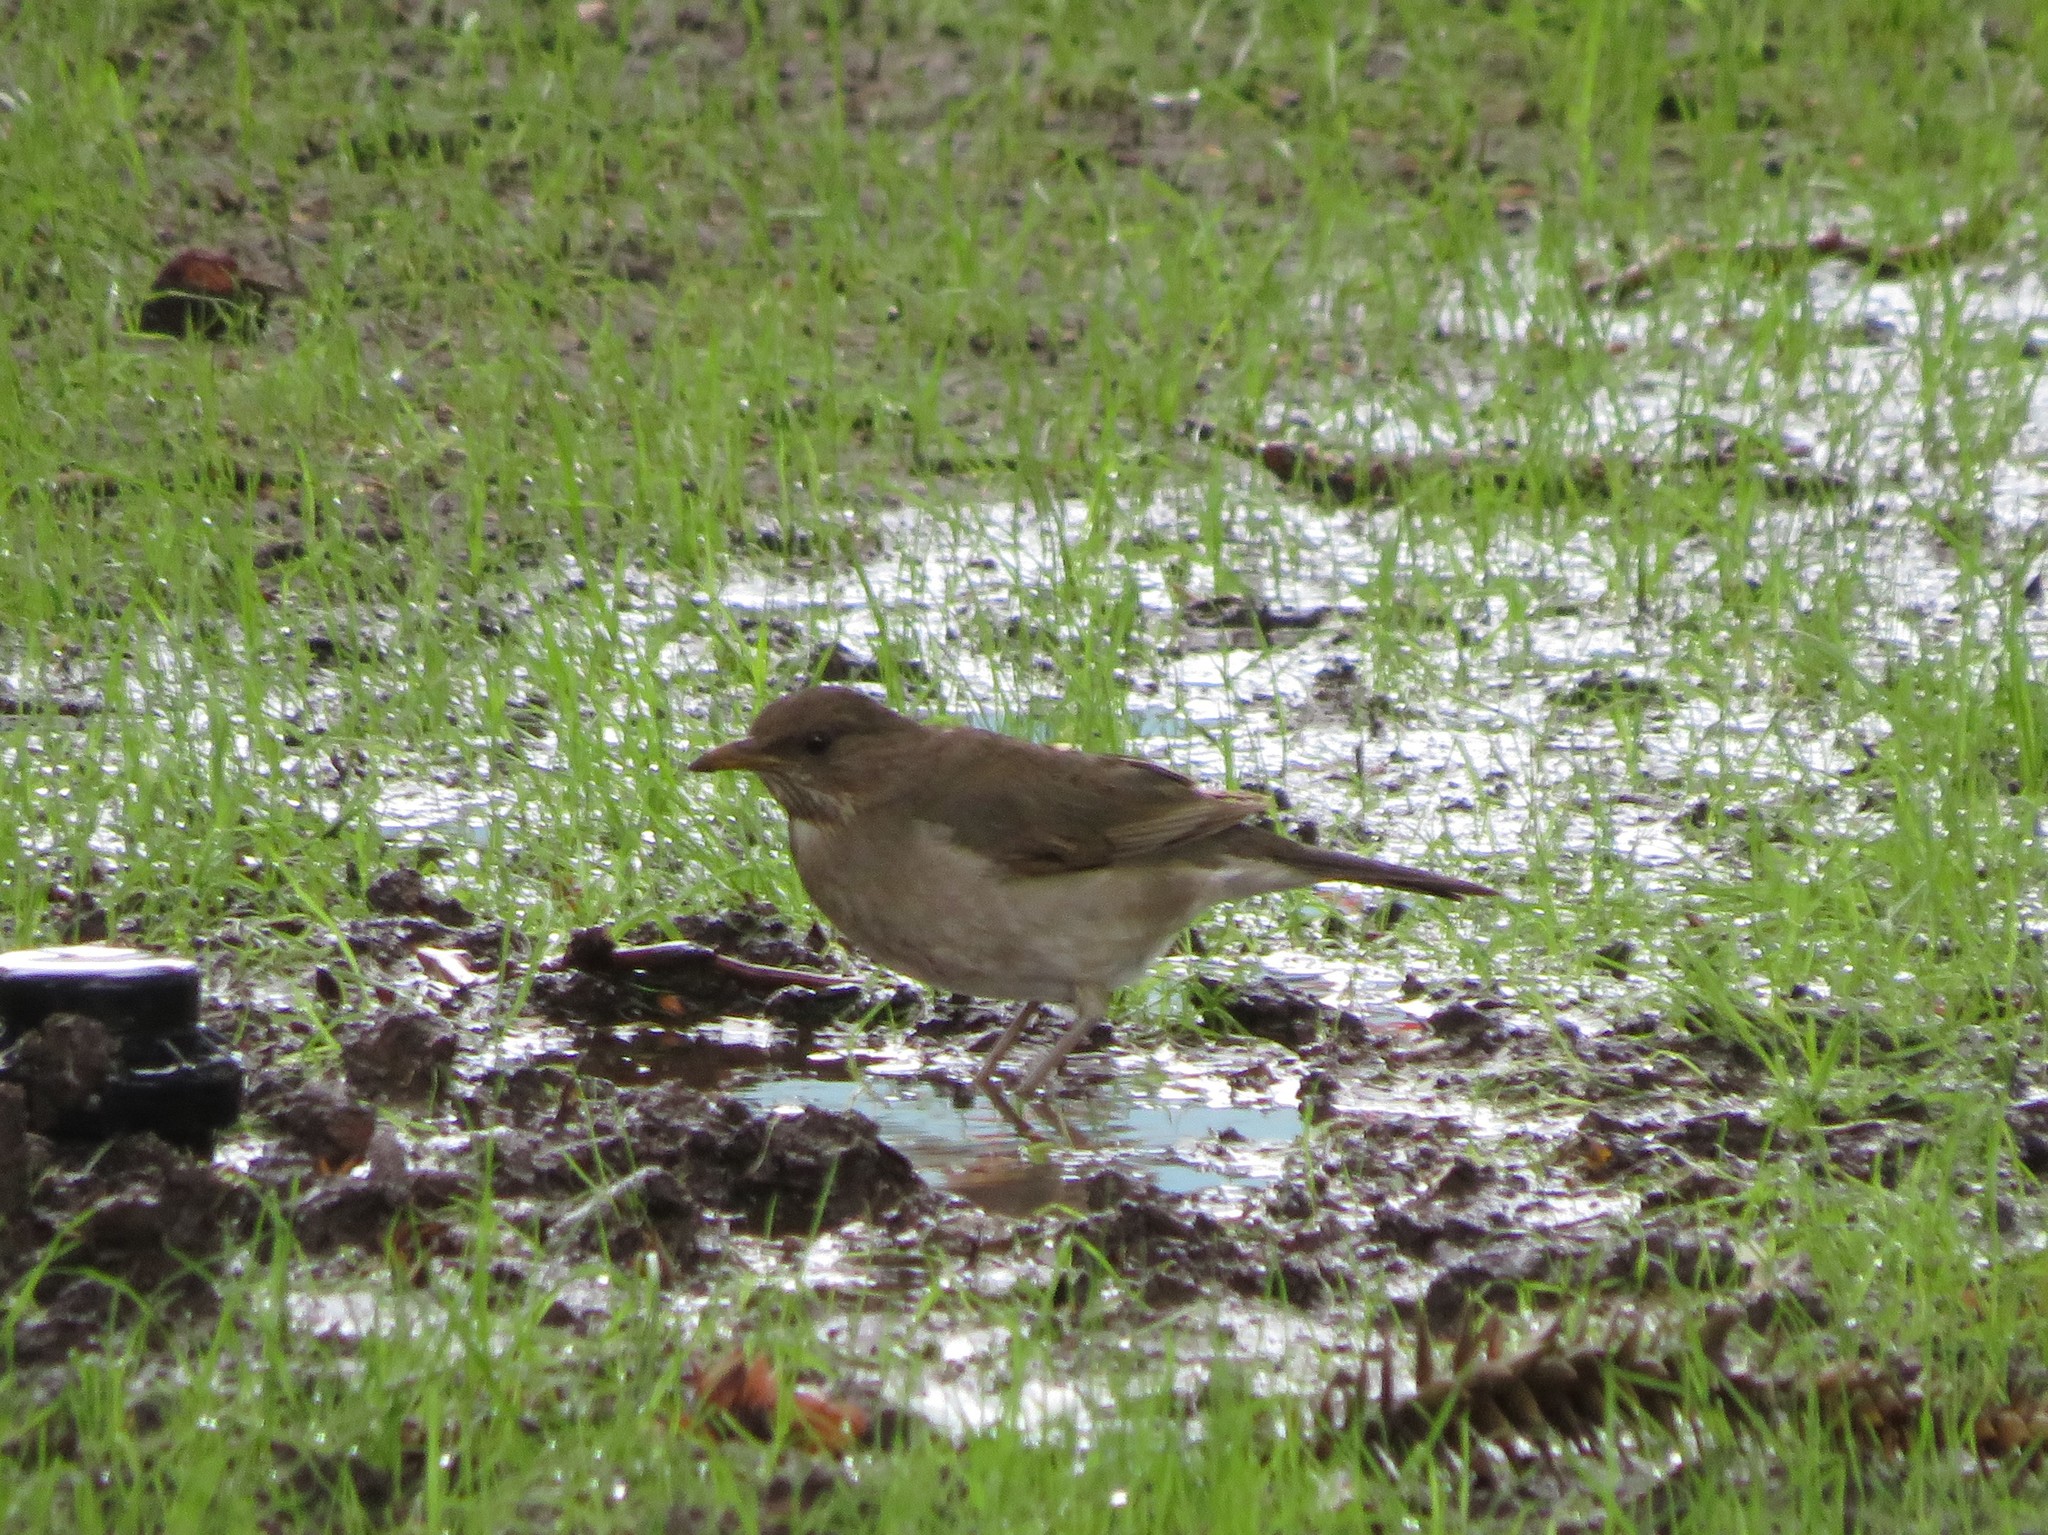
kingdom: Animalia
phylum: Chordata
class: Aves
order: Passeriformes
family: Turdidae
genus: Turdus
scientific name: Turdus amaurochalinus
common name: Creamy-bellied thrush
